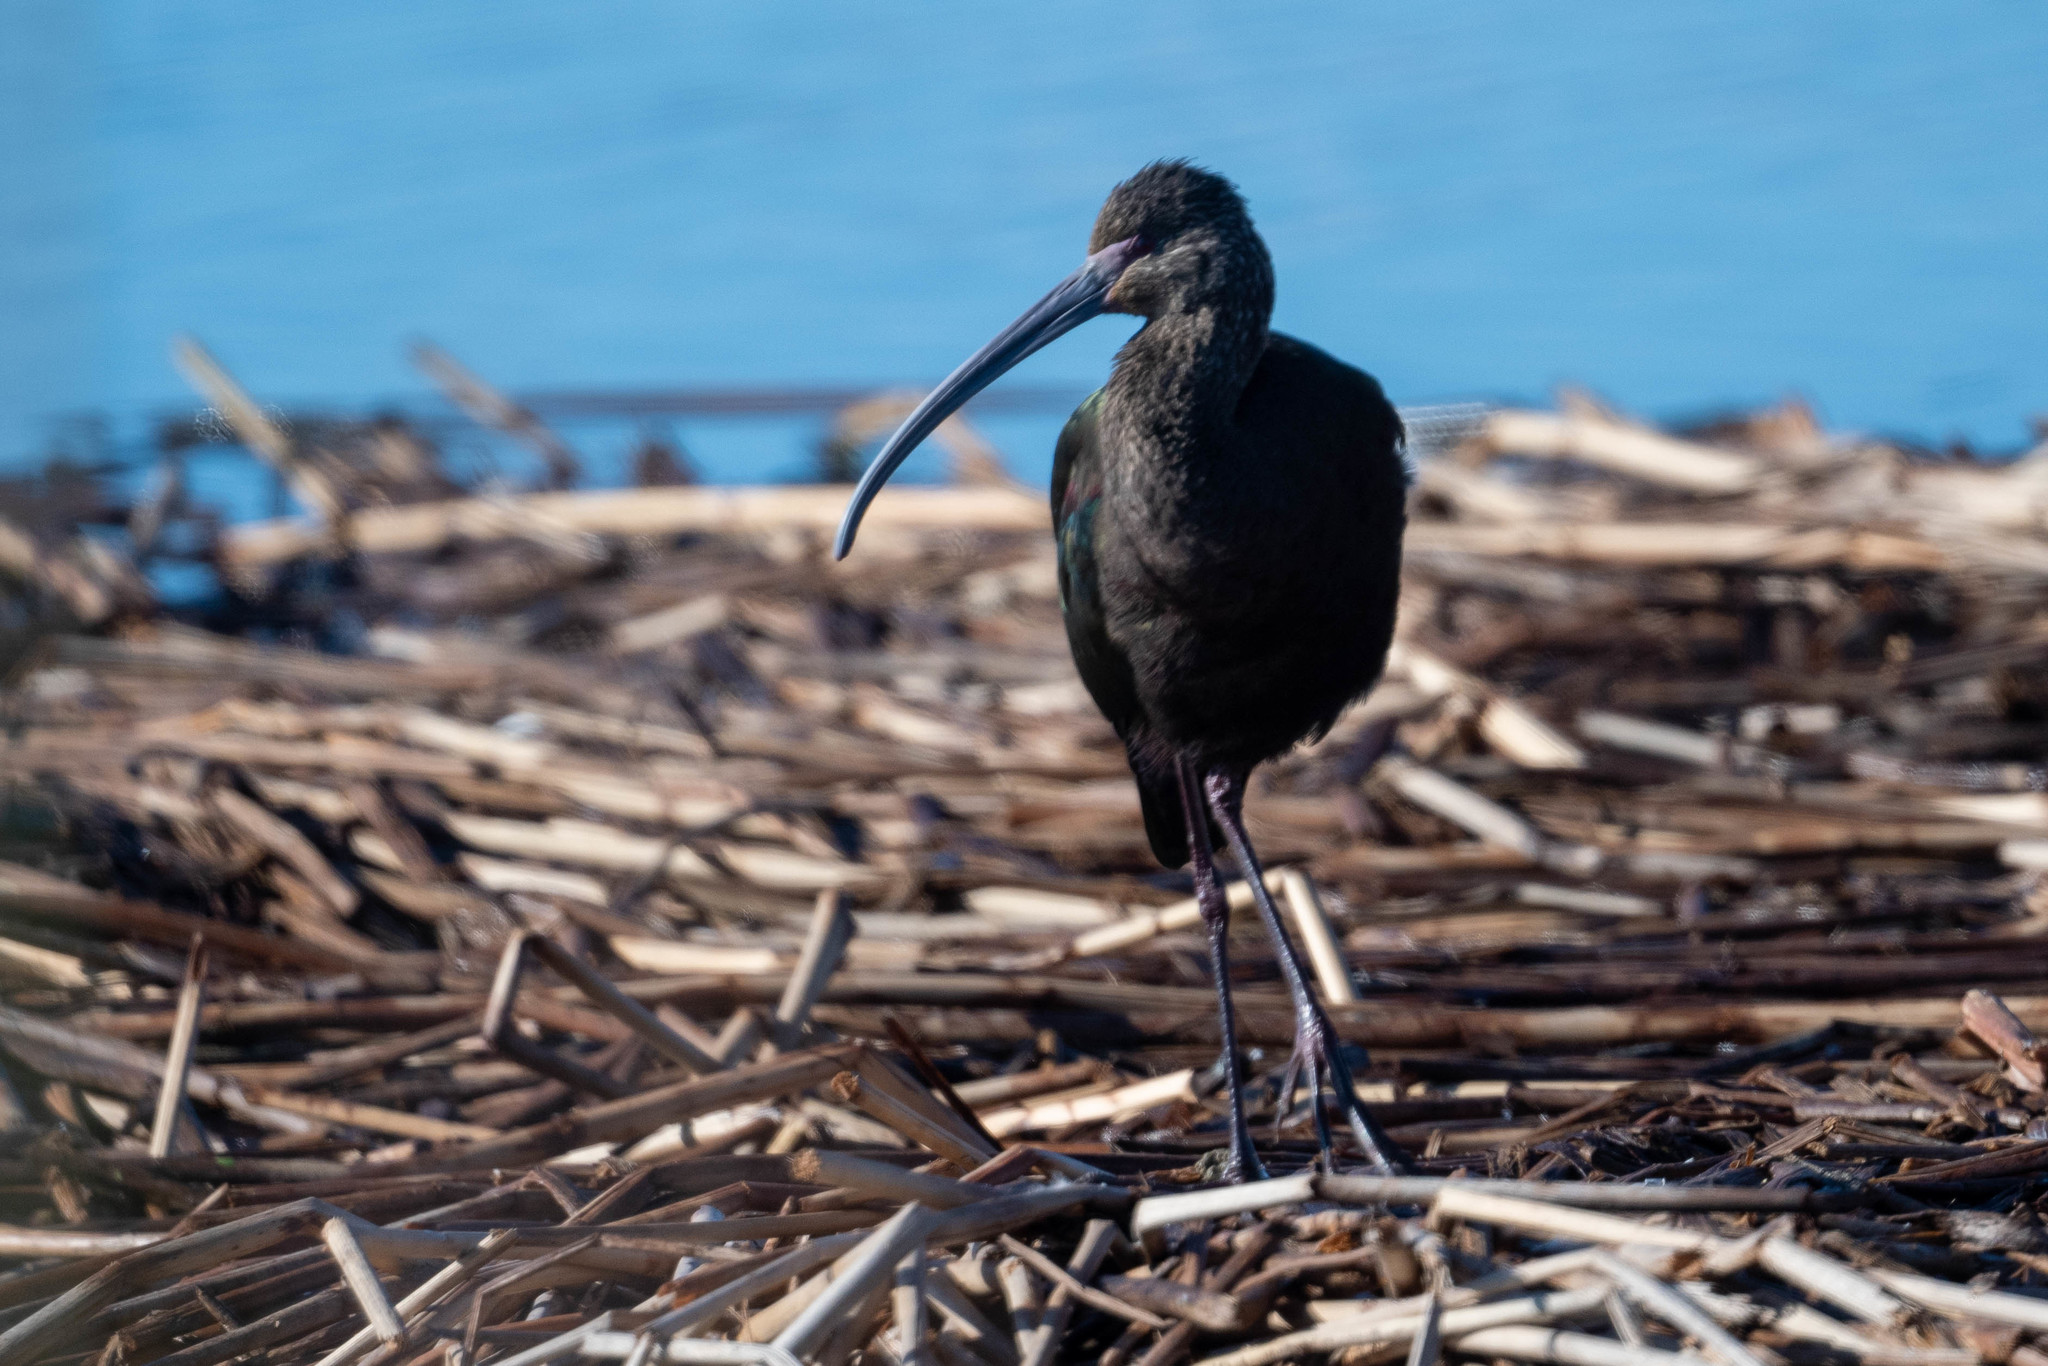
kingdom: Animalia
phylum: Chordata
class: Aves
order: Pelecaniformes
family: Threskiornithidae
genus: Plegadis
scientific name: Plegadis chihi
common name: White-faced ibis
